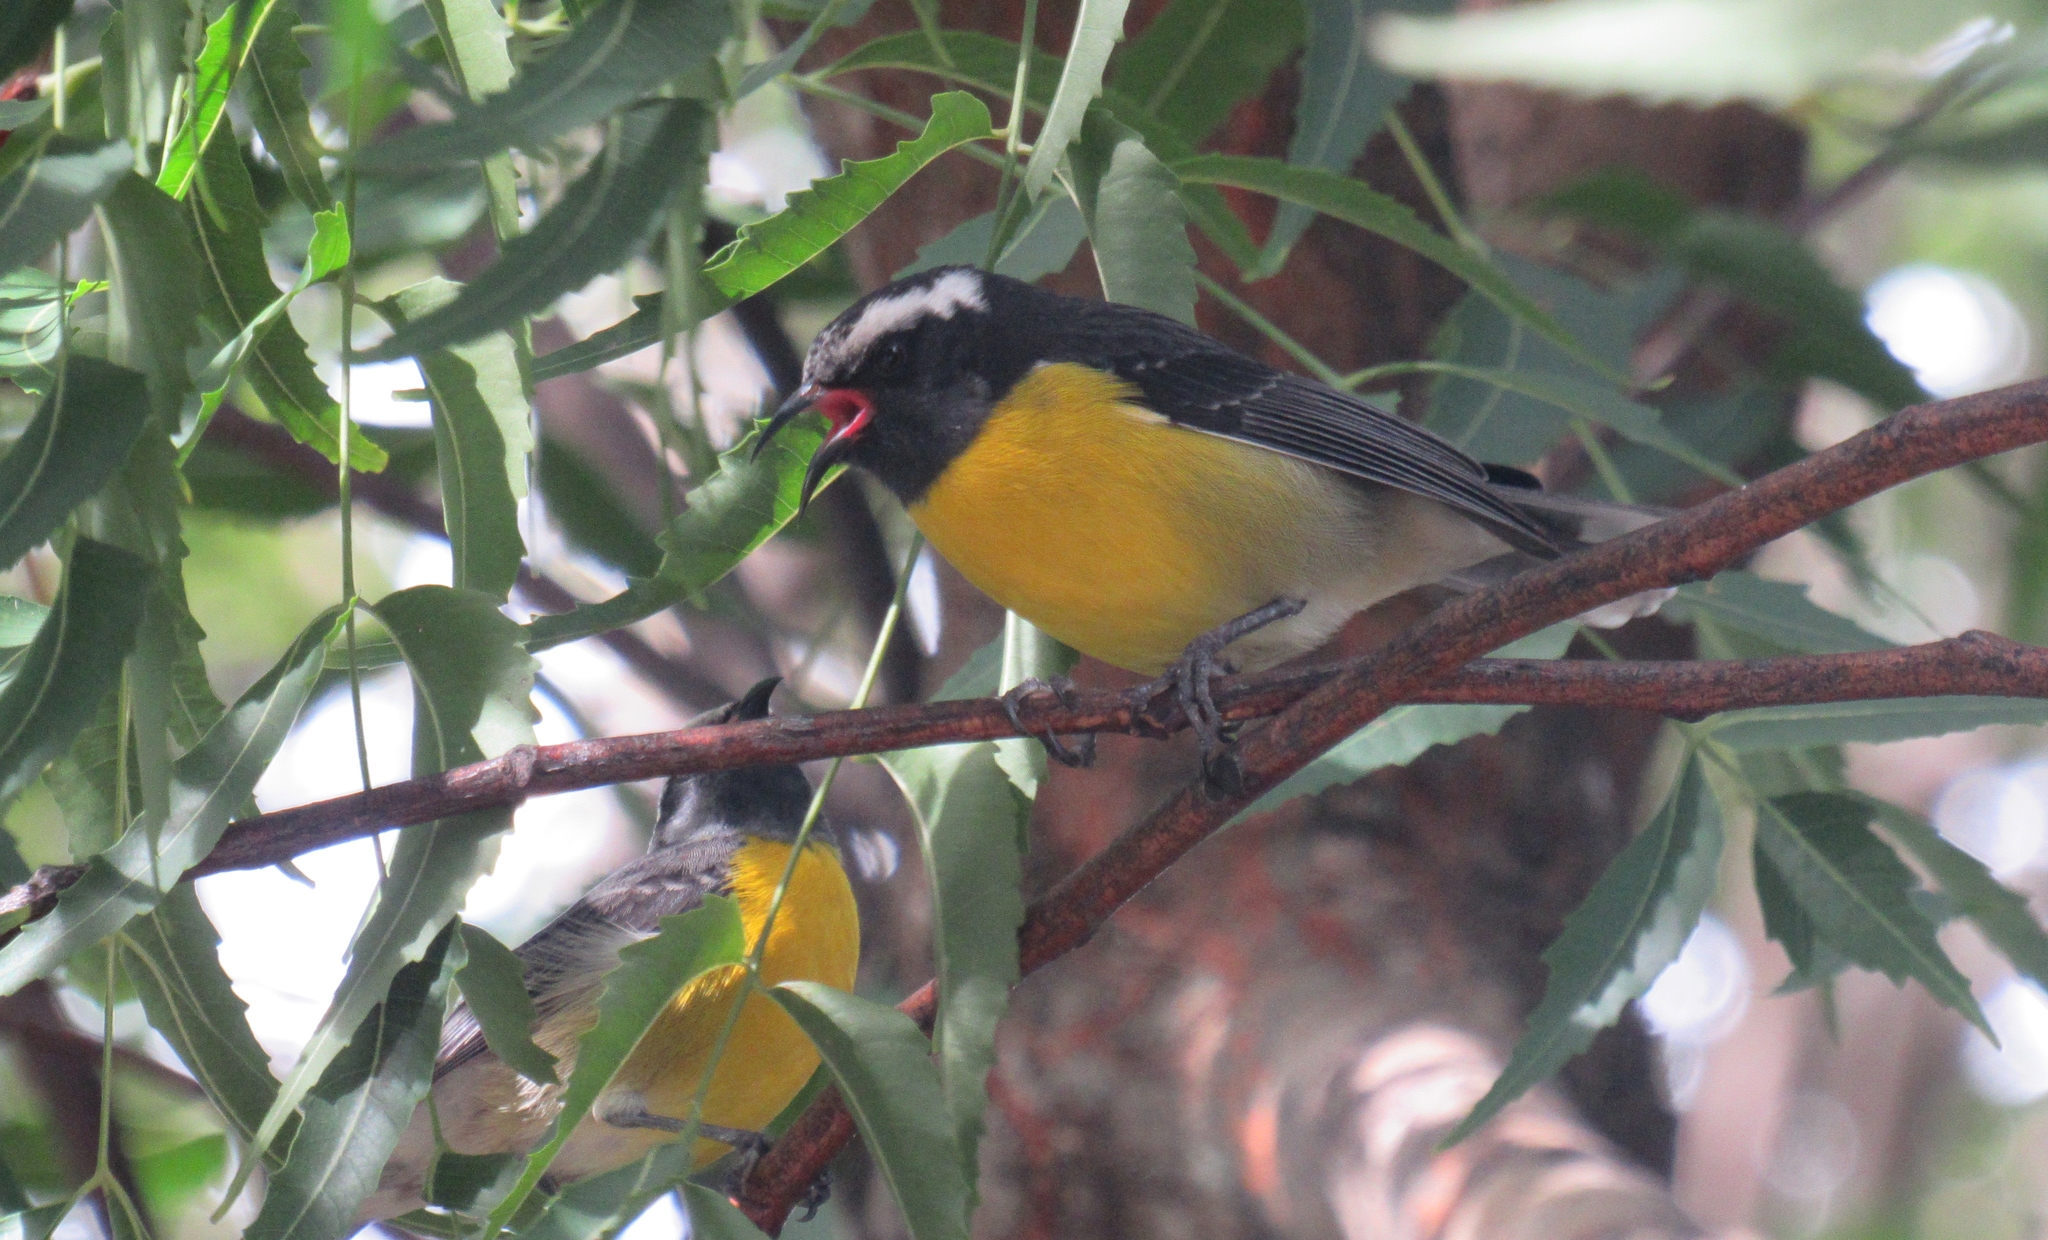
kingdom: Animalia
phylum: Chordata
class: Aves
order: Passeriformes
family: Thraupidae
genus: Coereba
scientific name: Coereba flaveola
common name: Bananaquit
